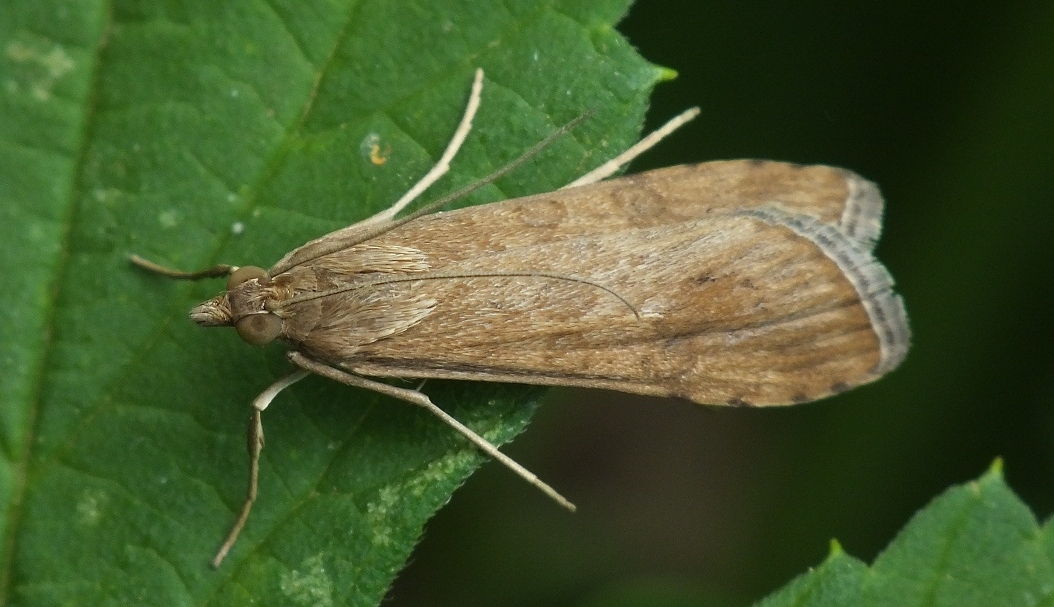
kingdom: Animalia
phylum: Arthropoda
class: Insecta
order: Lepidoptera
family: Crambidae
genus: Nomophila
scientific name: Nomophila noctuella
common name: Rush veneer
